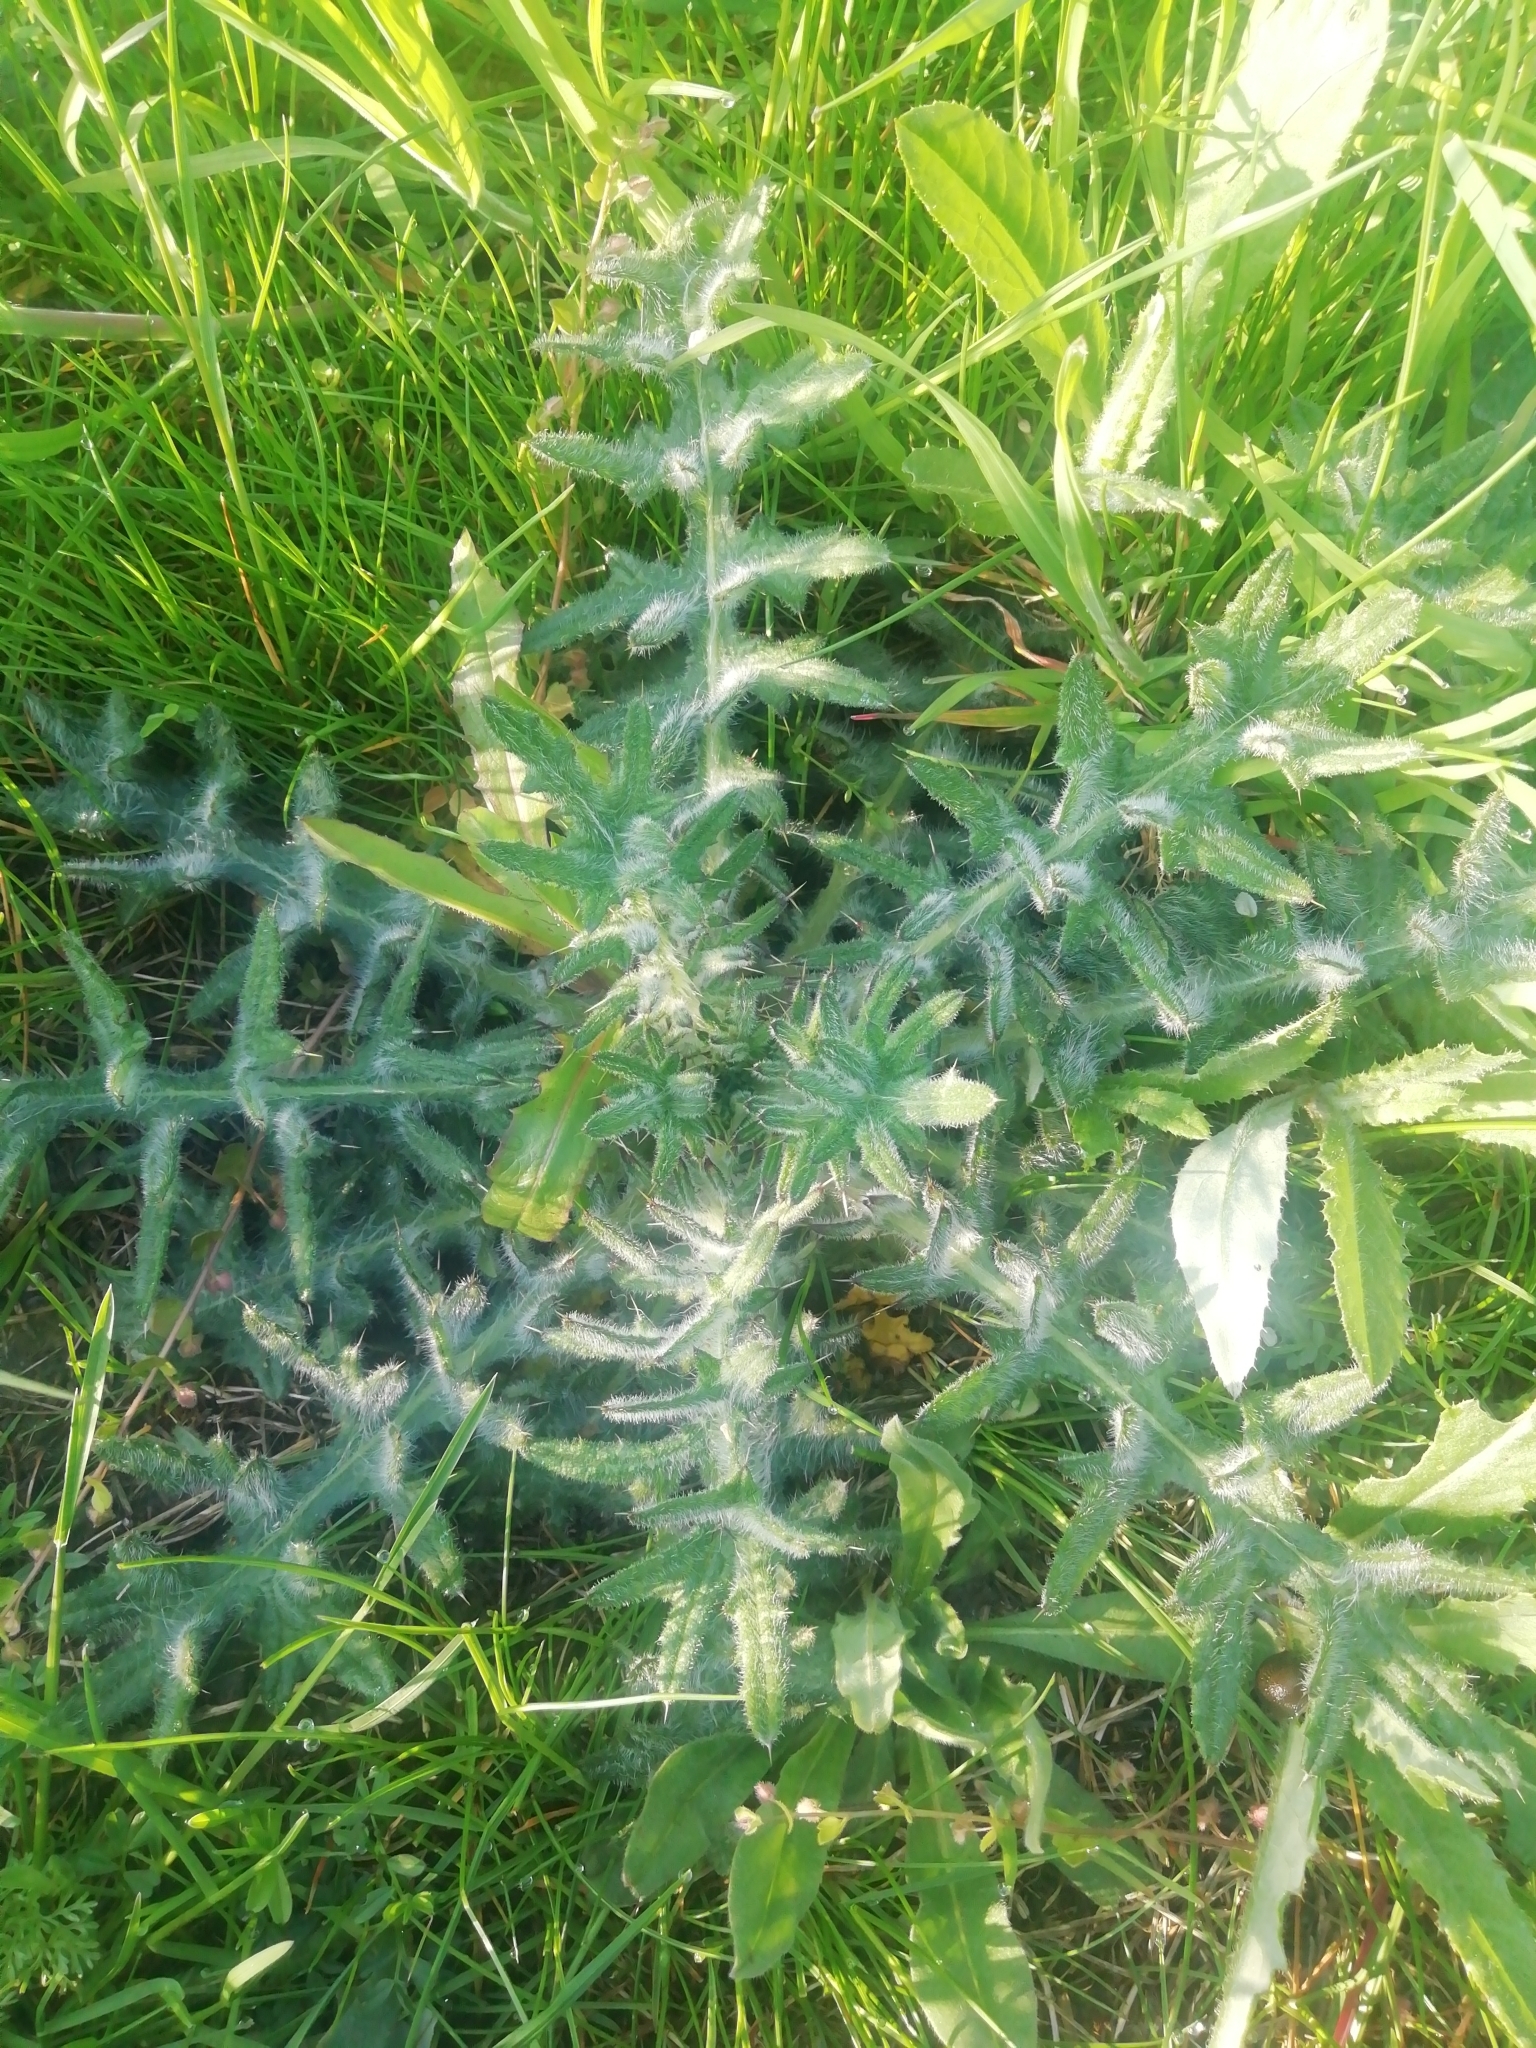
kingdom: Plantae
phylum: Tracheophyta
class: Magnoliopsida
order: Asterales
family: Asteraceae
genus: Cirsium
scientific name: Cirsium vulgare
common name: Bull thistle
